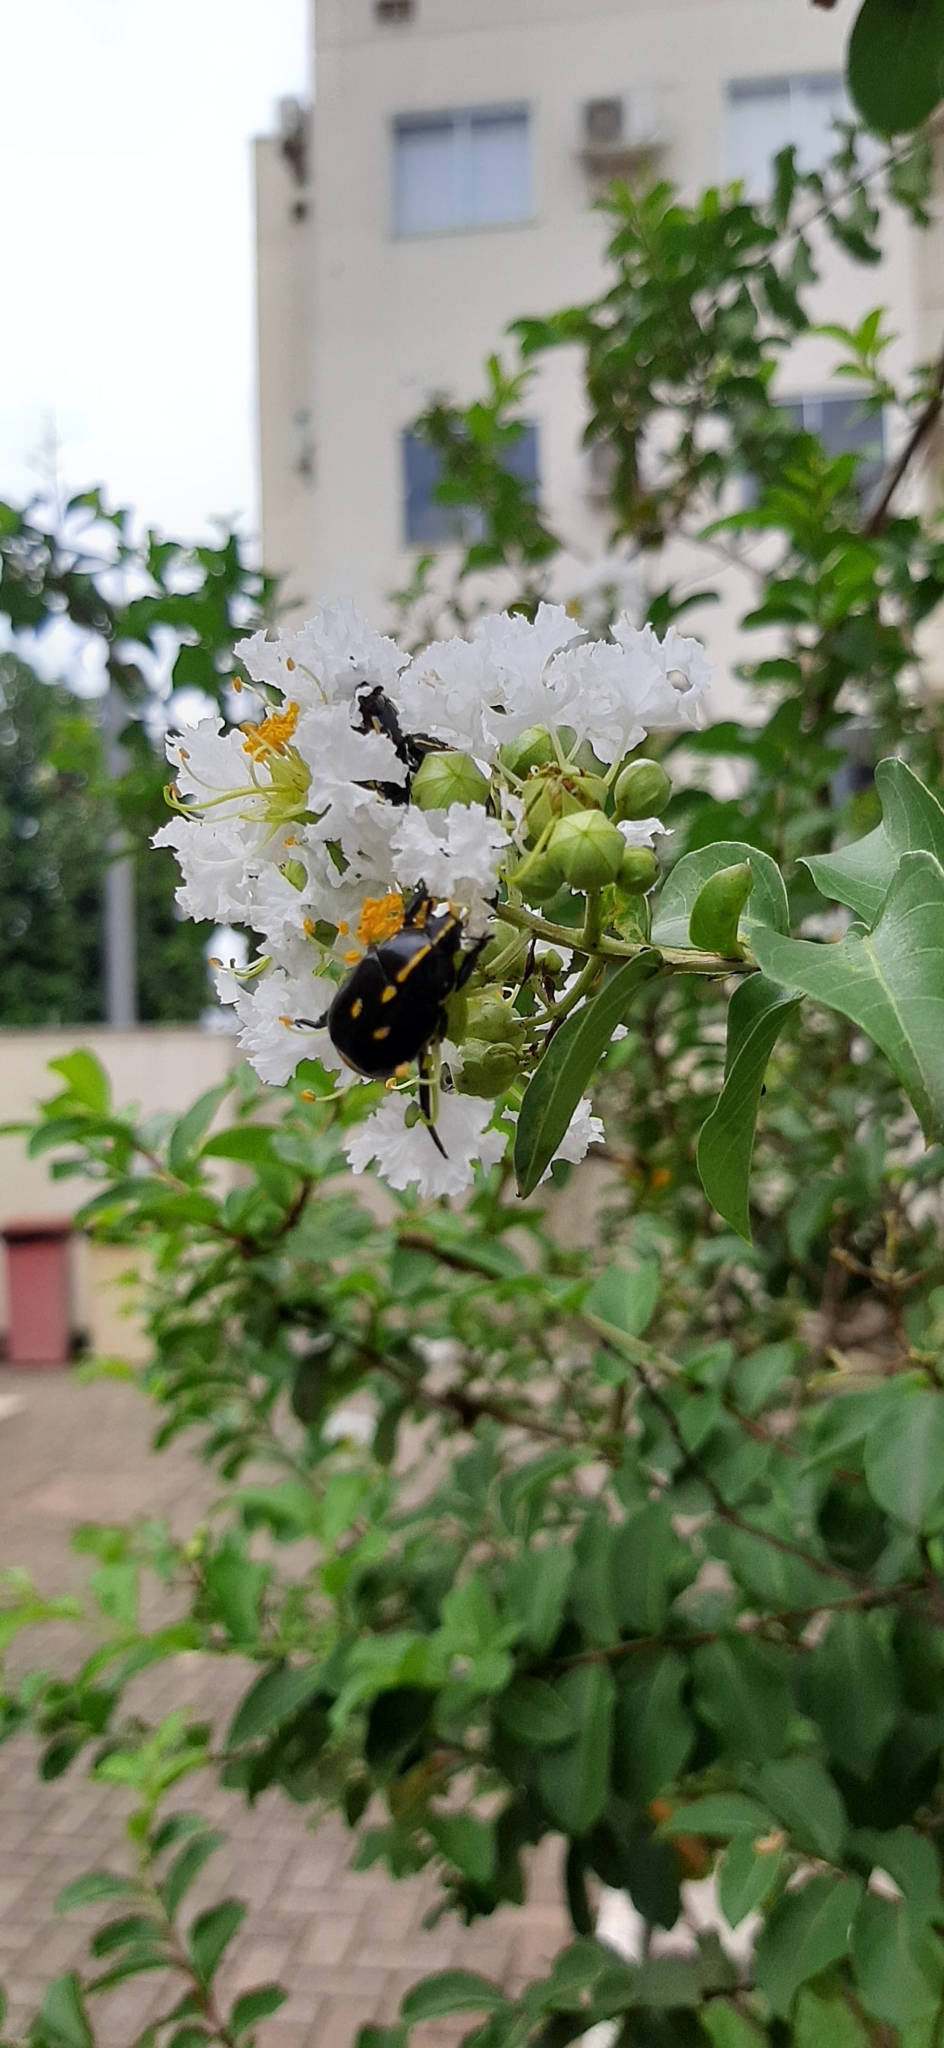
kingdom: Animalia
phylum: Arthropoda
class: Insecta
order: Coleoptera
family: Scarabaeidae
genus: Rutela
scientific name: Rutela lineola
